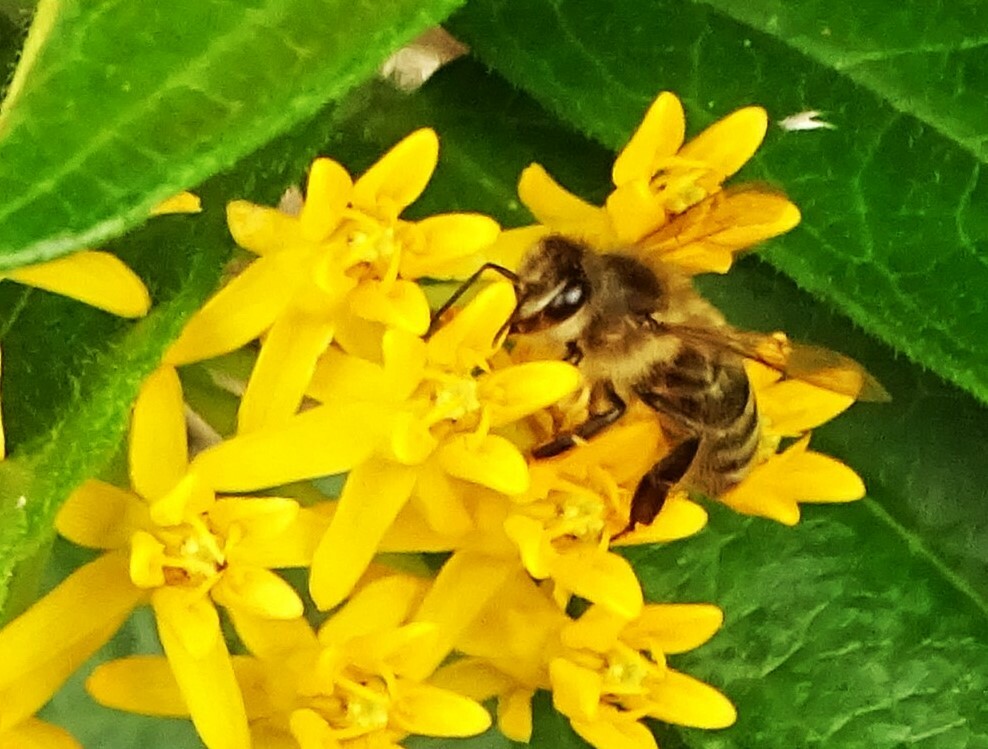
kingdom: Animalia
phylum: Arthropoda
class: Insecta
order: Hymenoptera
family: Apidae
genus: Apis
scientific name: Apis mellifera
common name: Honey bee
